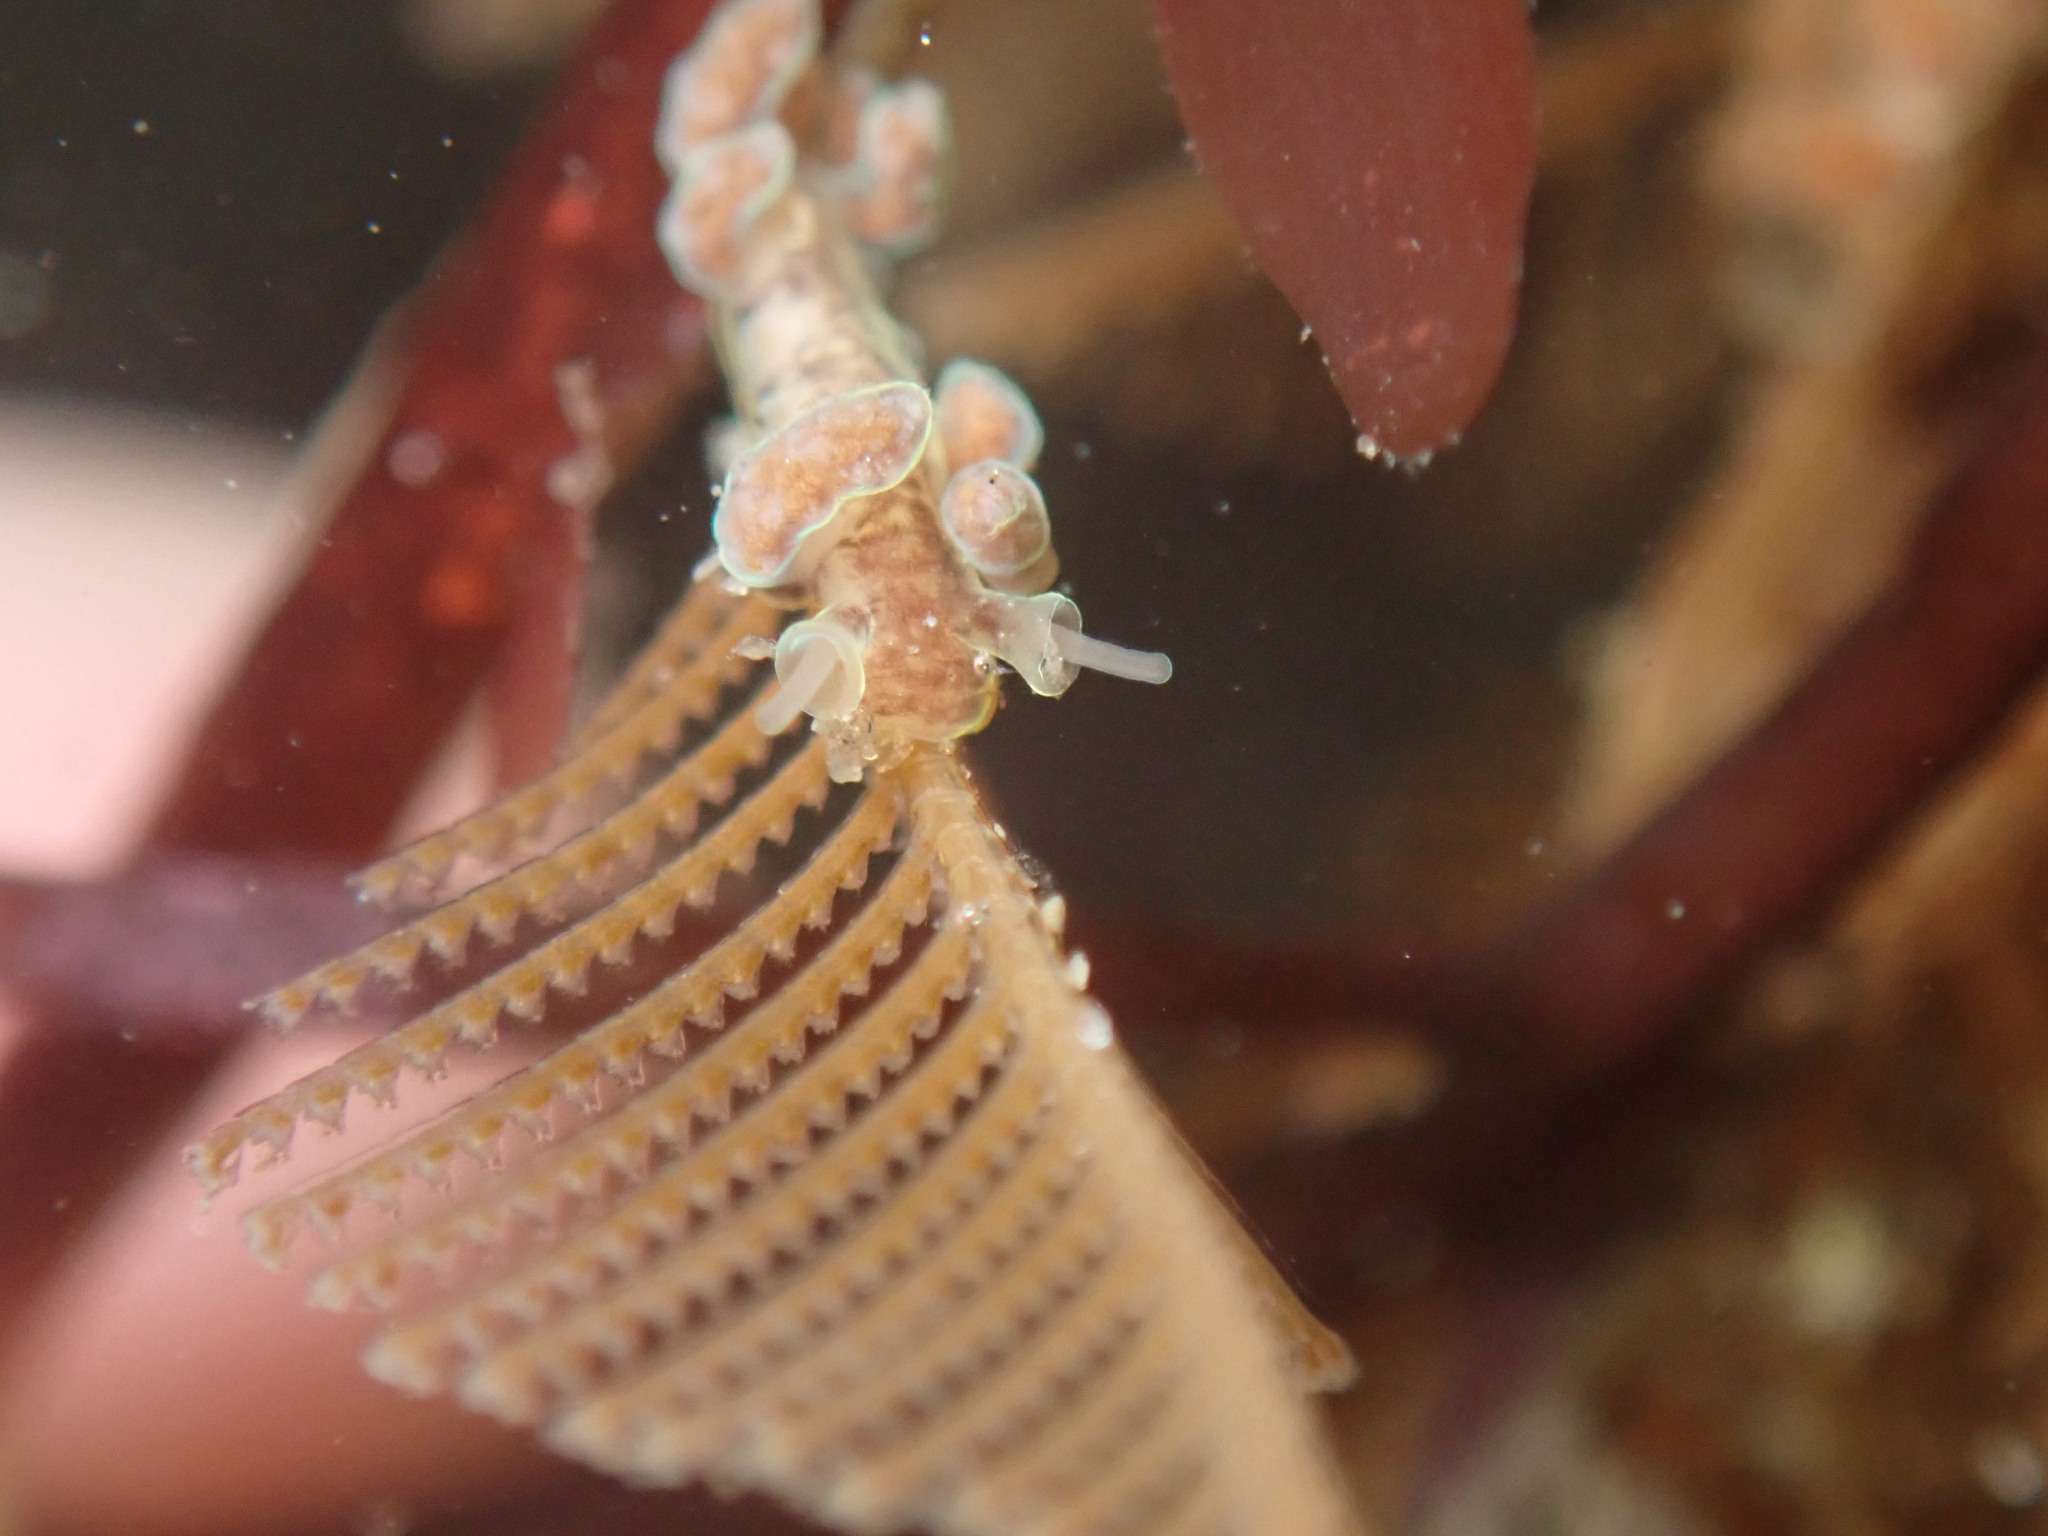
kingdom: Animalia
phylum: Mollusca
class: Gastropoda
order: Nudibranchia
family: Dotidae
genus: Doto
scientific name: Doto columbiana
